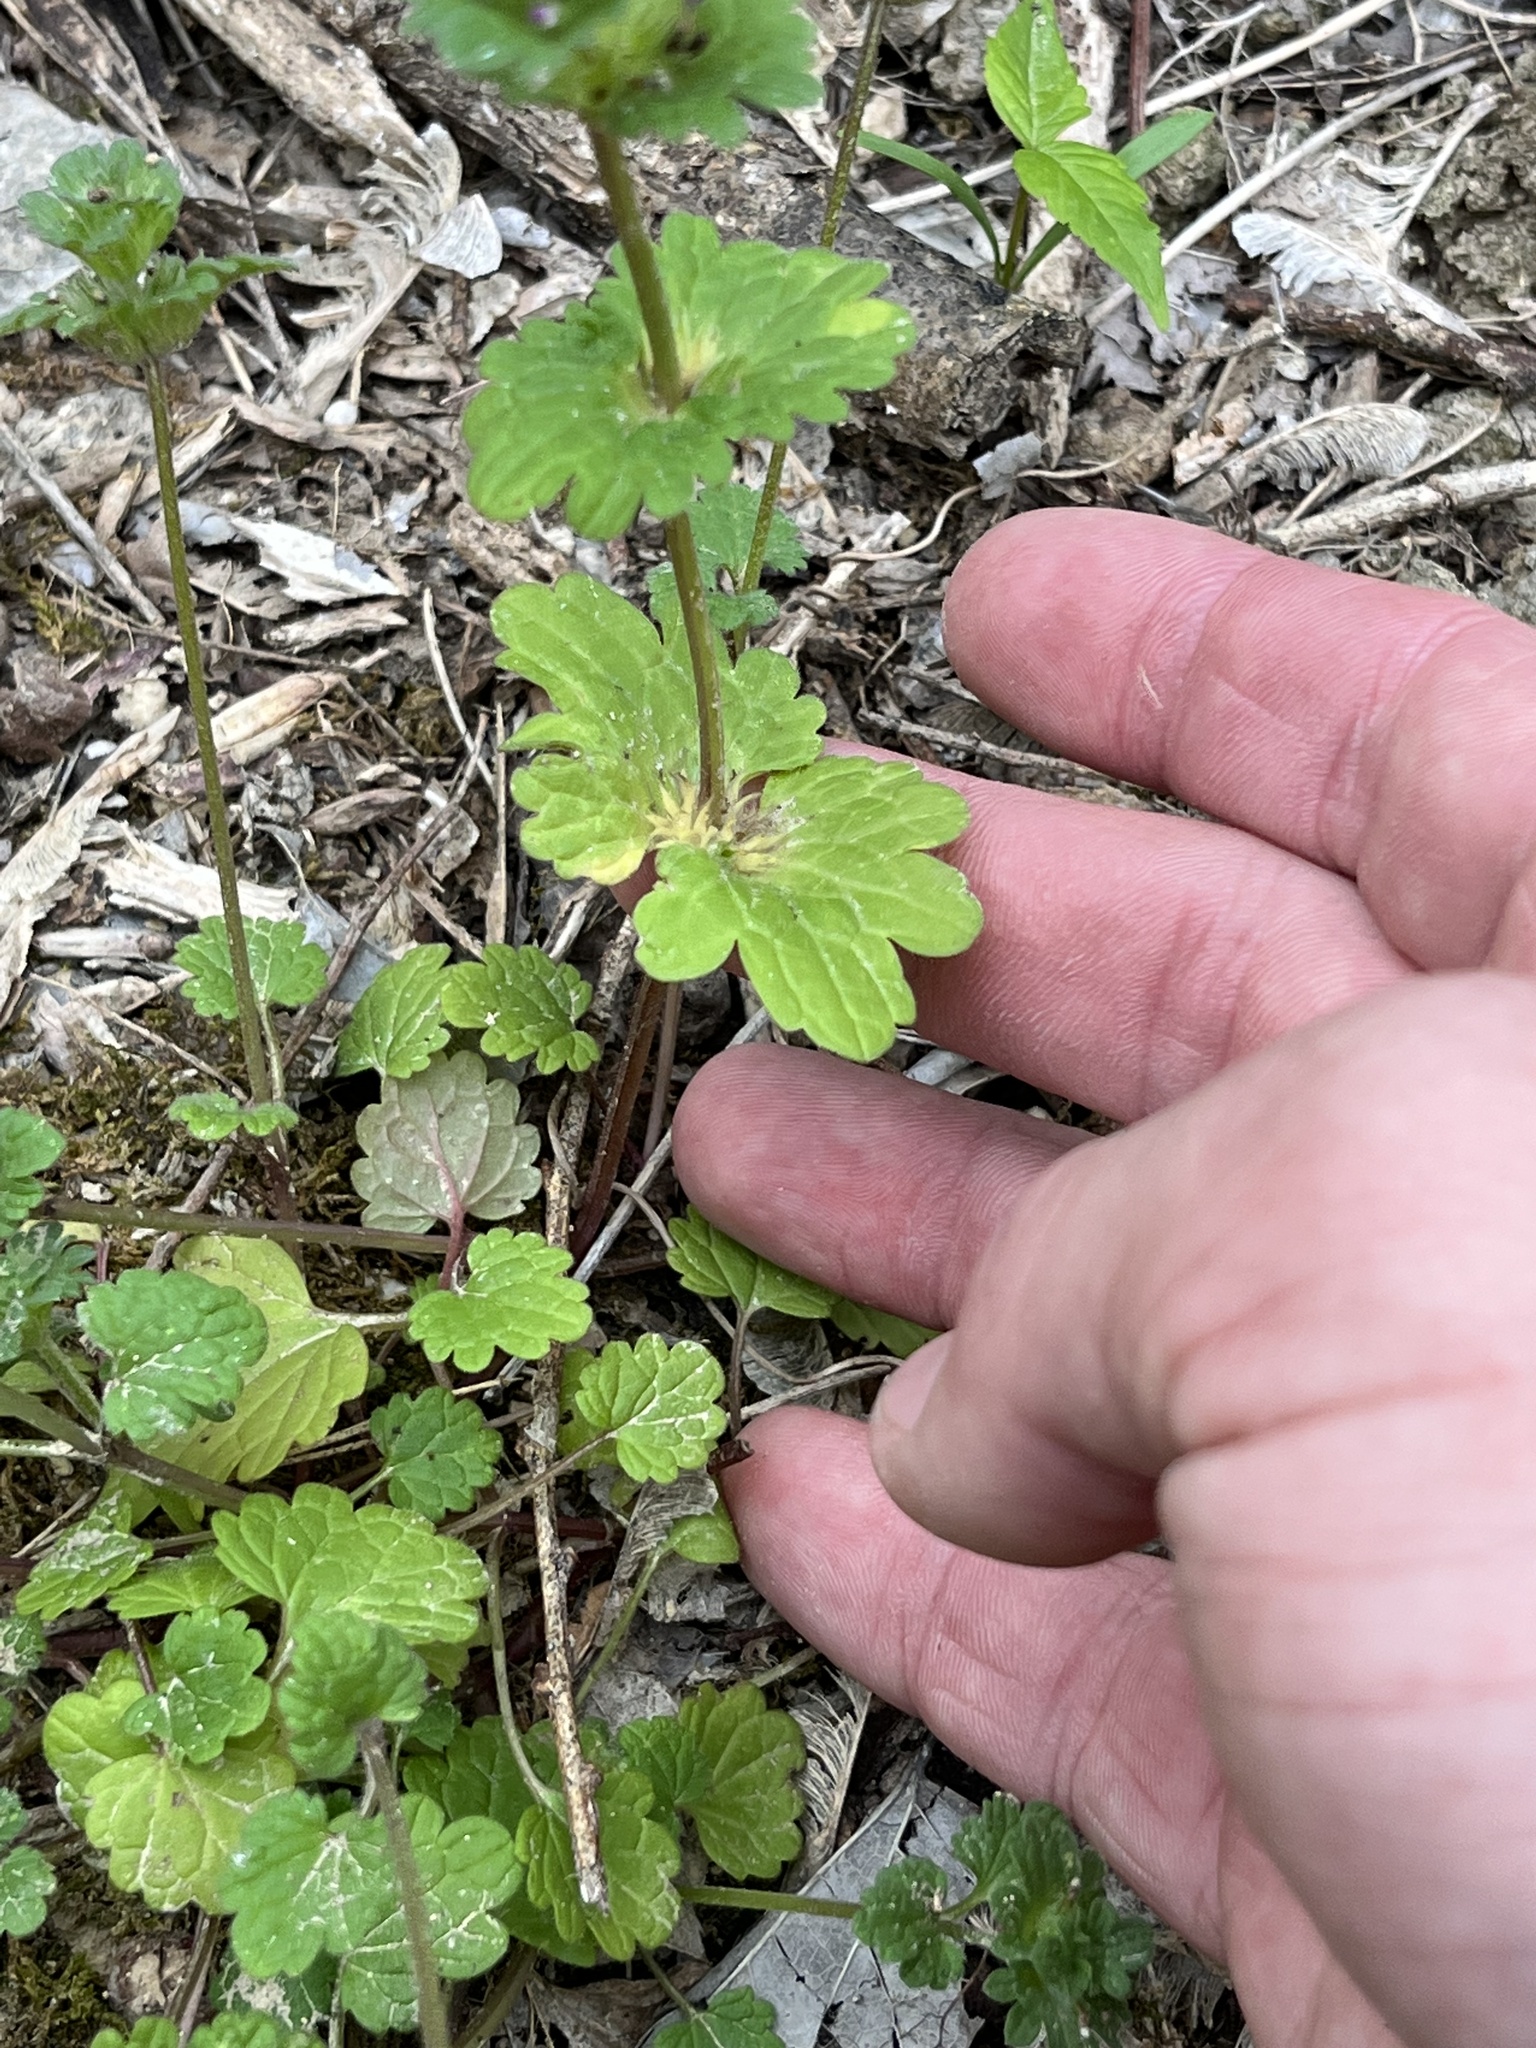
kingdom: Plantae
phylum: Tracheophyta
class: Magnoliopsida
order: Lamiales
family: Lamiaceae
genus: Lamium
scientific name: Lamium amplexicaule
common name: Henbit dead-nettle
